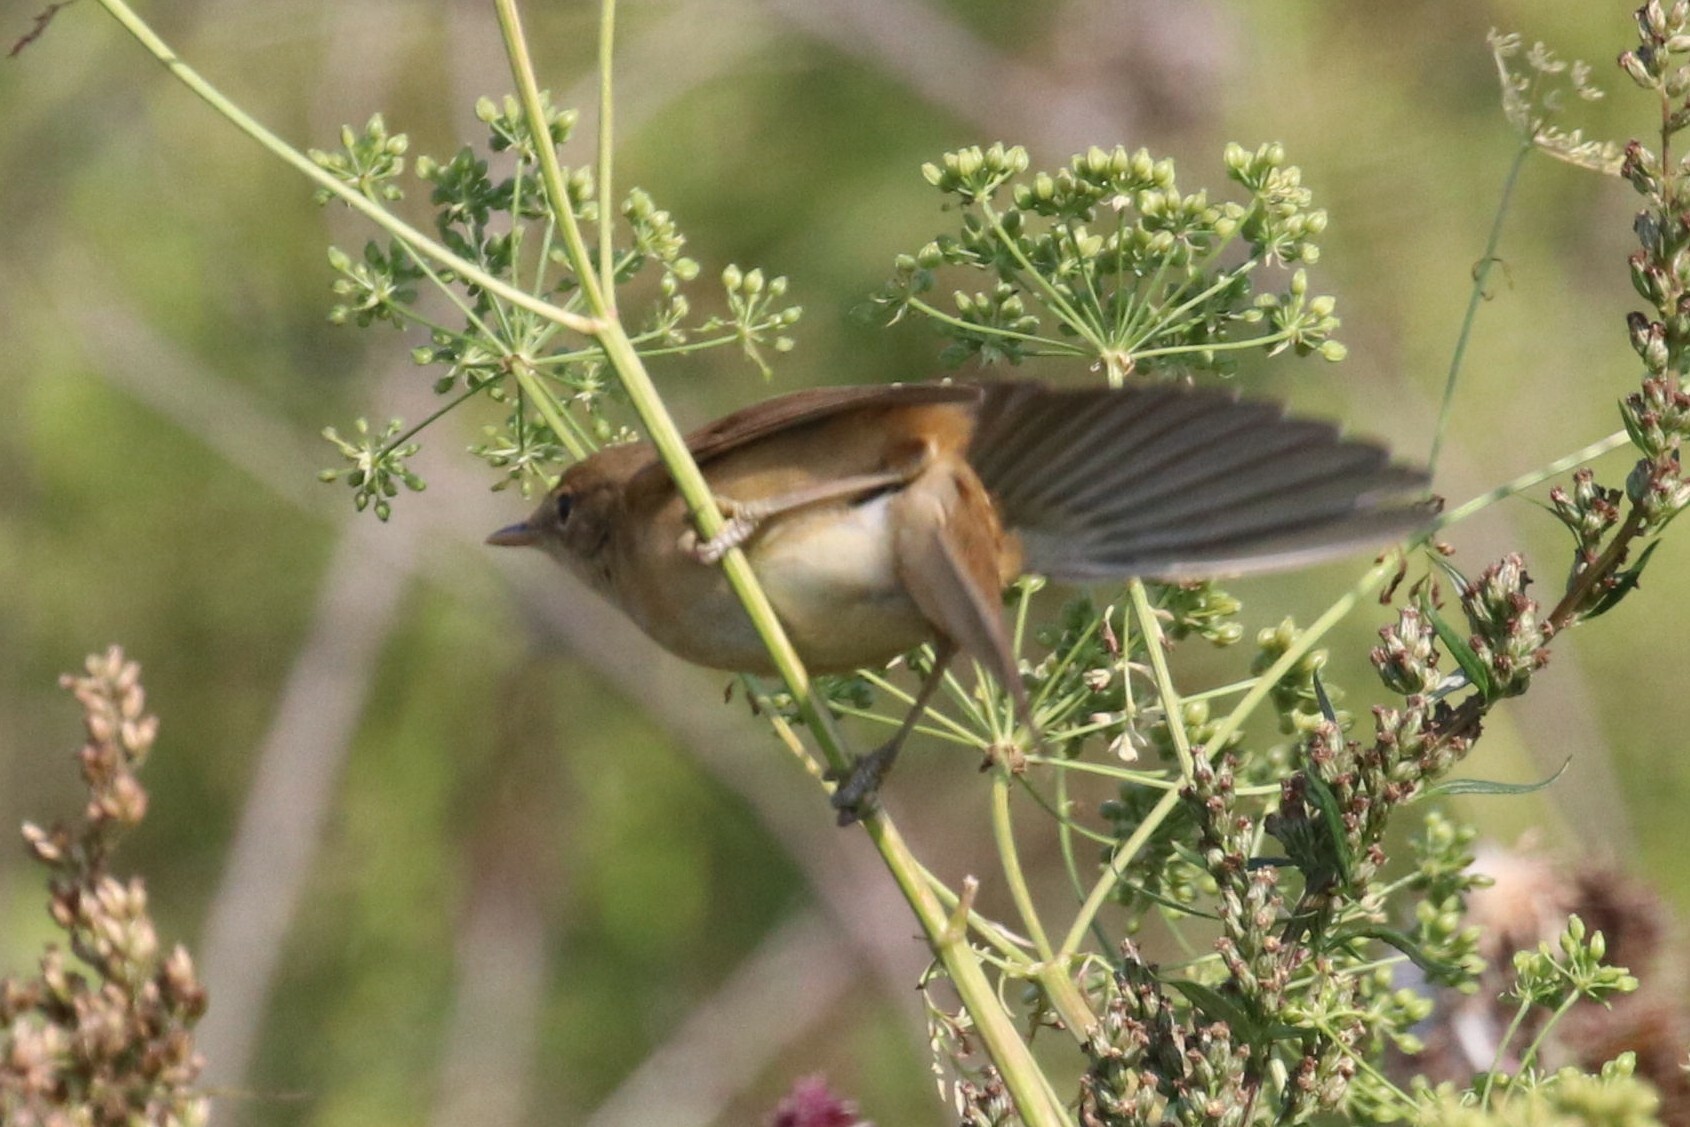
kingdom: Animalia
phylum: Chordata
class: Aves
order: Passeriformes
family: Acrocephalidae
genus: Acrocephalus
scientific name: Acrocephalus palustris
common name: Marsh warbler
